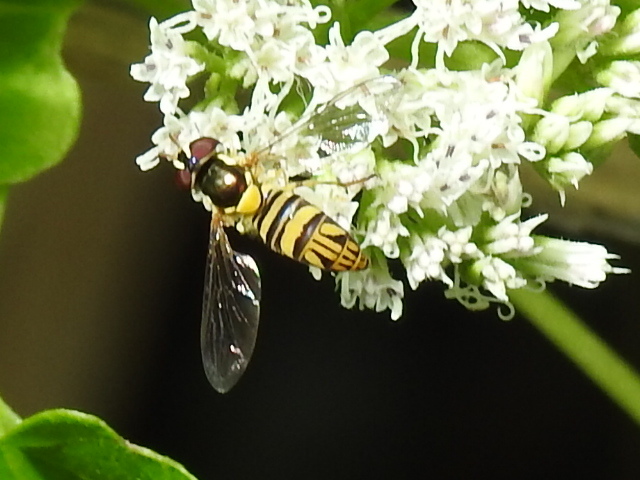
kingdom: Animalia
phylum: Arthropoda
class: Insecta
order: Diptera
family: Syrphidae
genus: Allograpta
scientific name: Allograpta obliqua
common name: Common oblique syrphid
